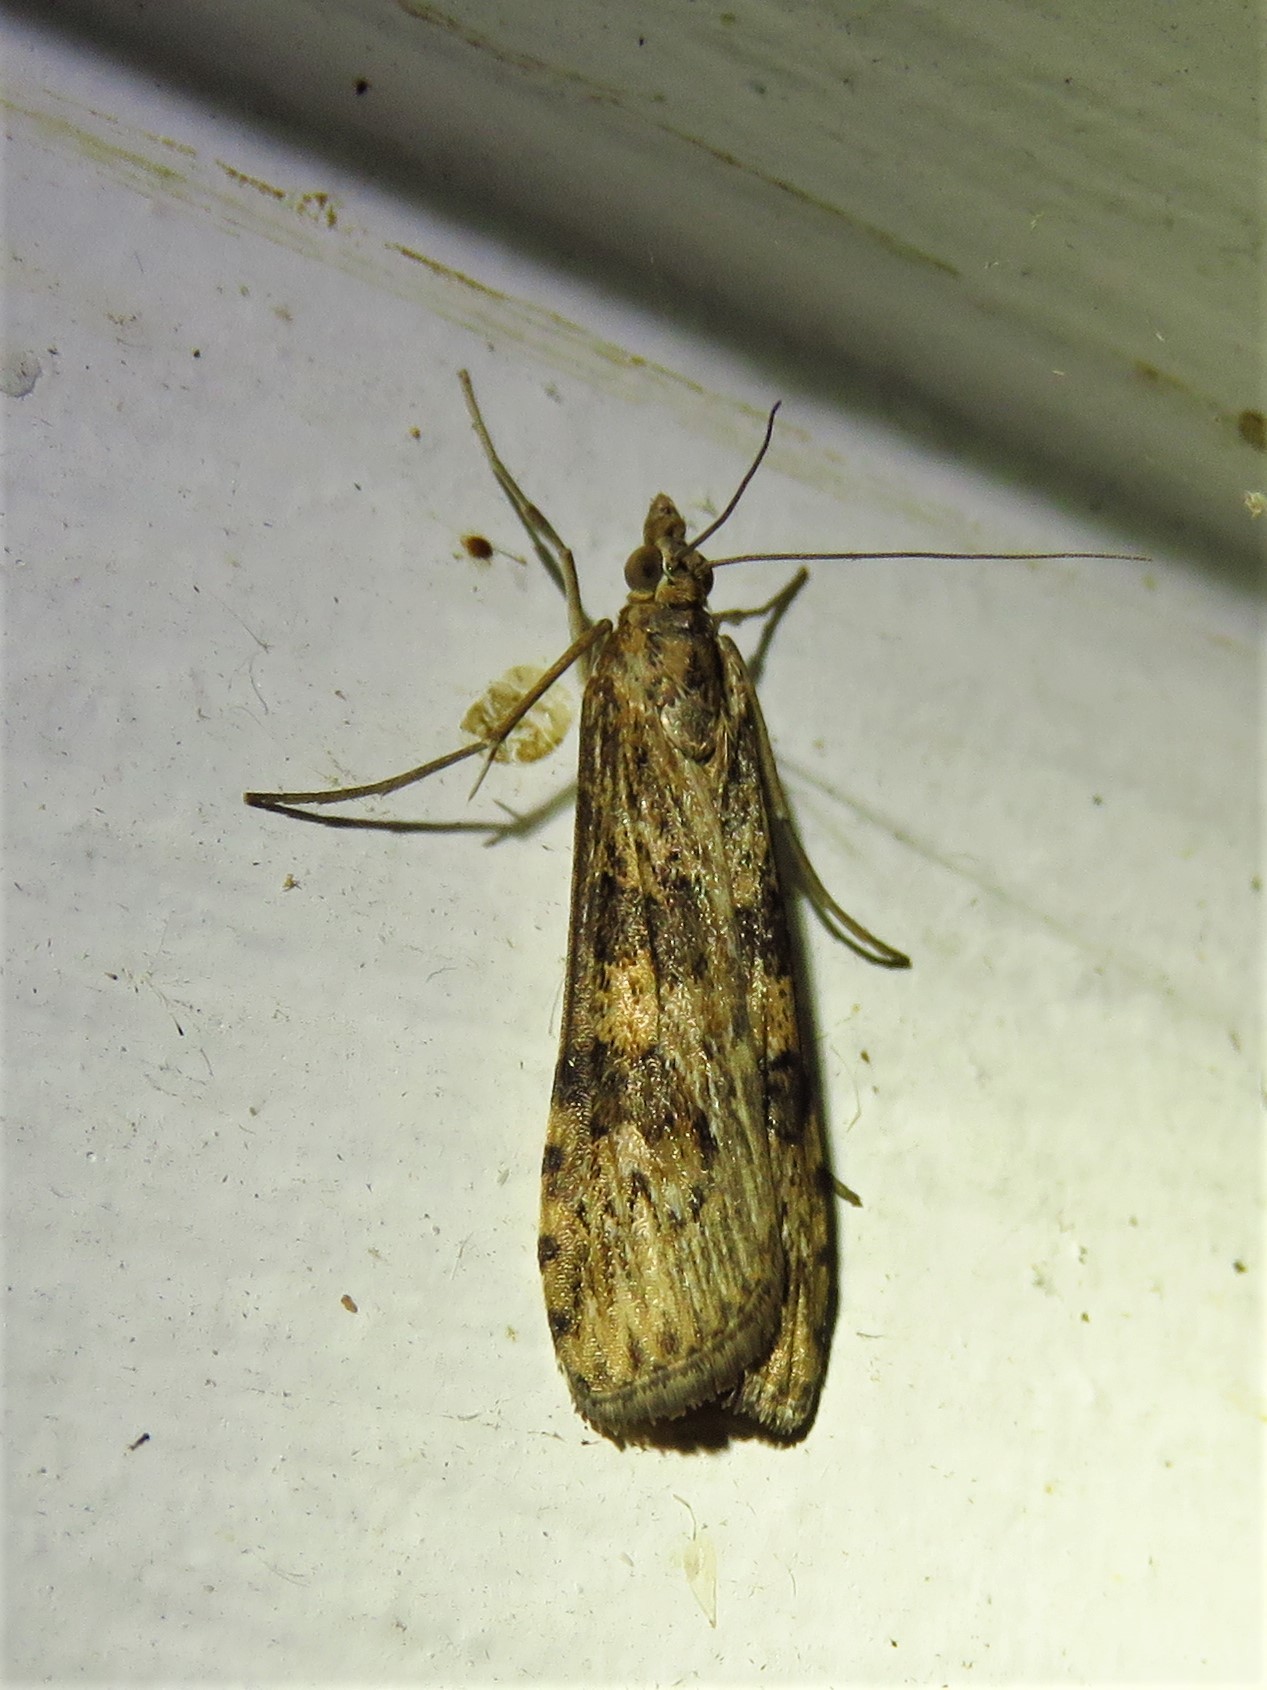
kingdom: Animalia
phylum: Arthropoda
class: Insecta
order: Lepidoptera
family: Crambidae
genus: Nomophila
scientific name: Nomophila nearctica
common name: American rush veneer
